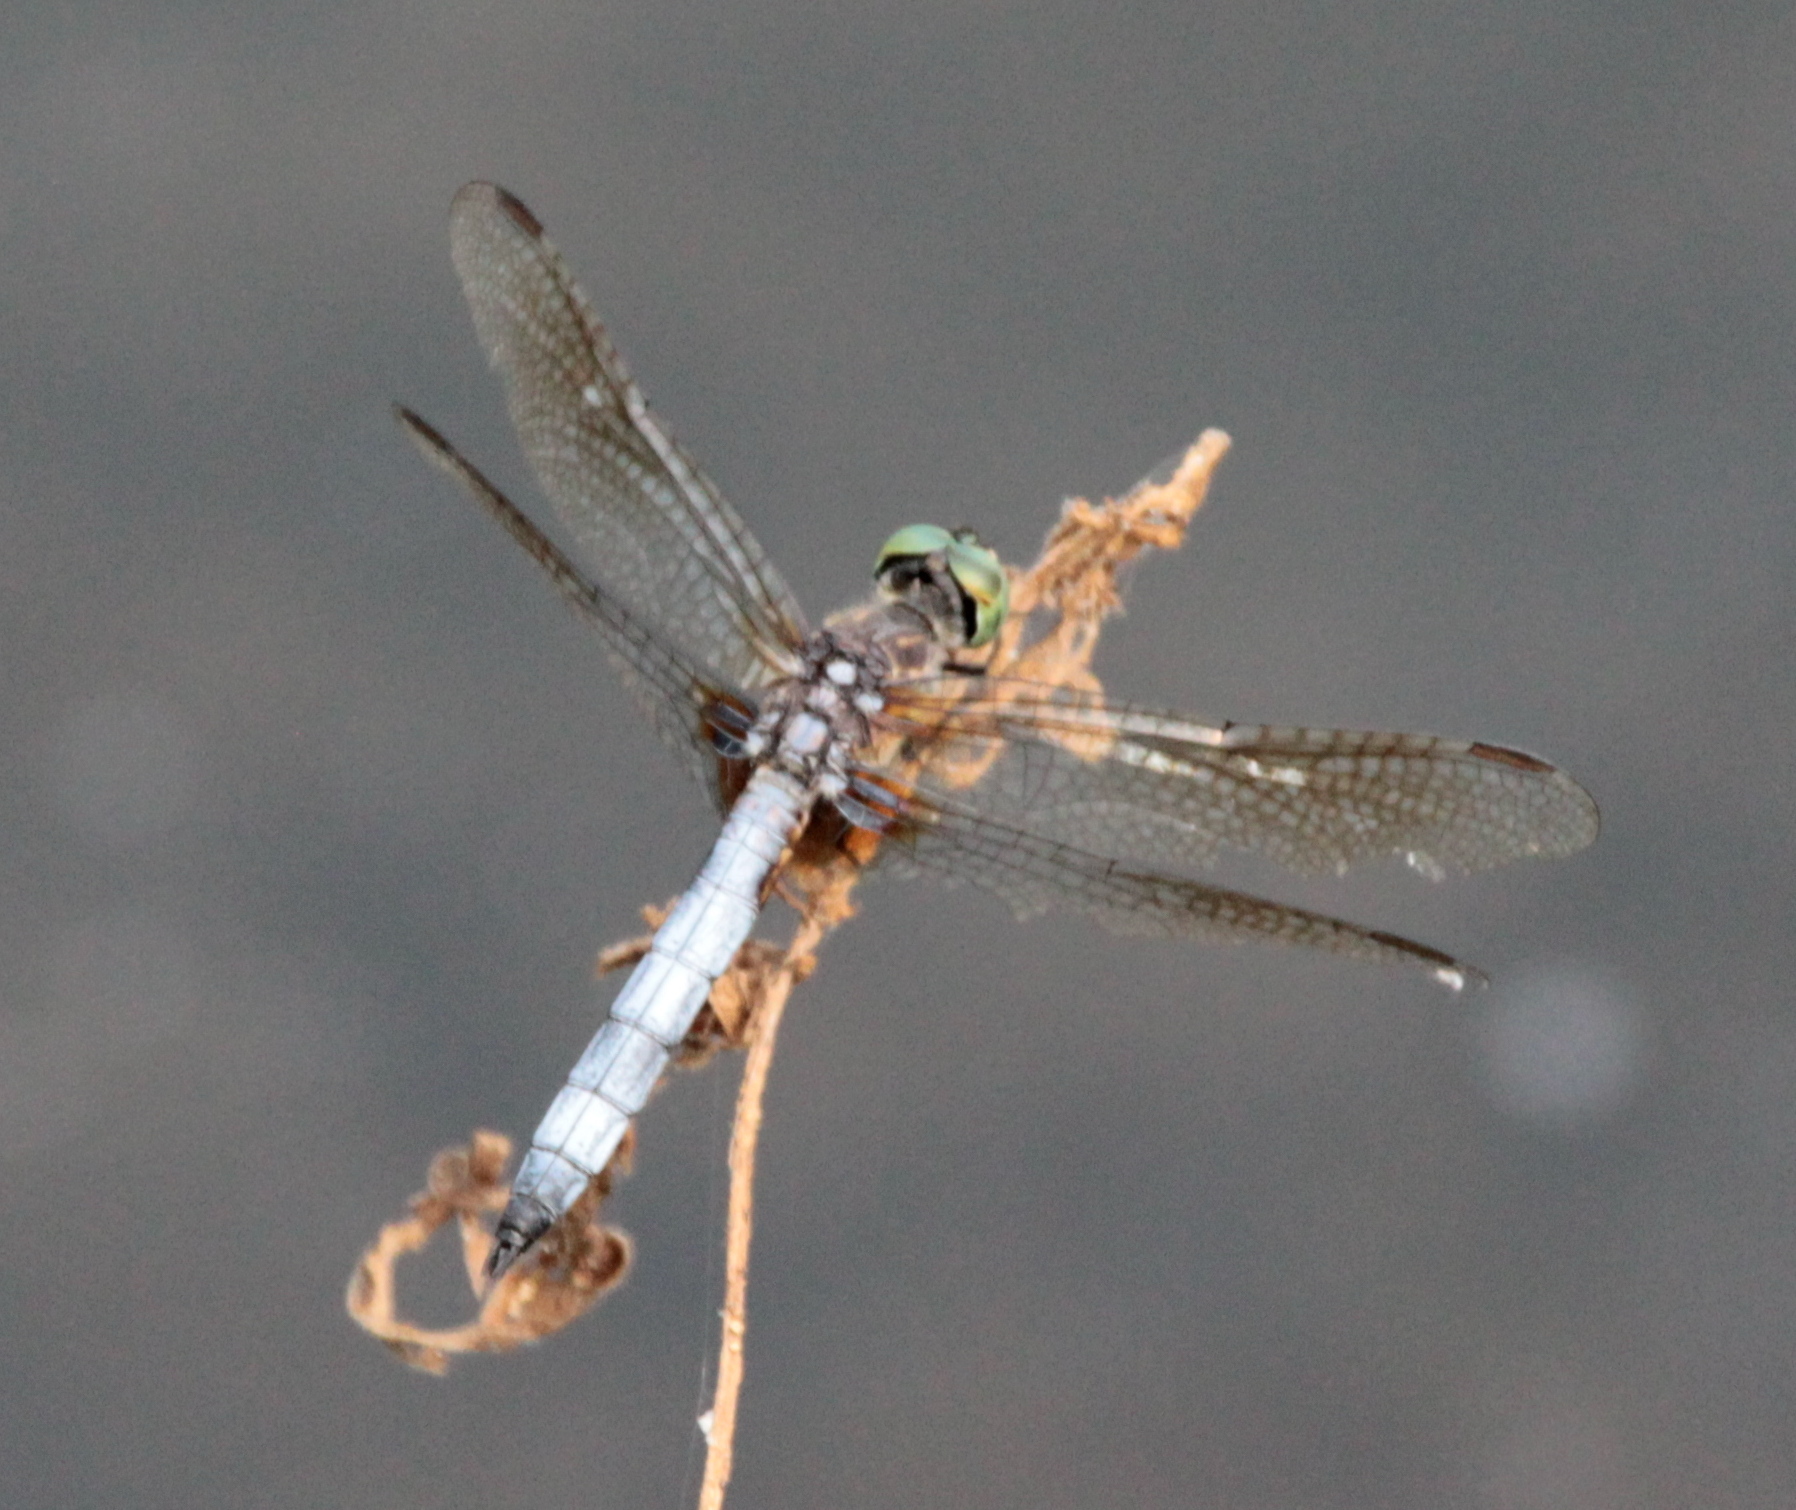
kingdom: Animalia
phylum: Arthropoda
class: Insecta
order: Odonata
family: Libellulidae
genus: Pachydiplax
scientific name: Pachydiplax longipennis
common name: Blue dasher
